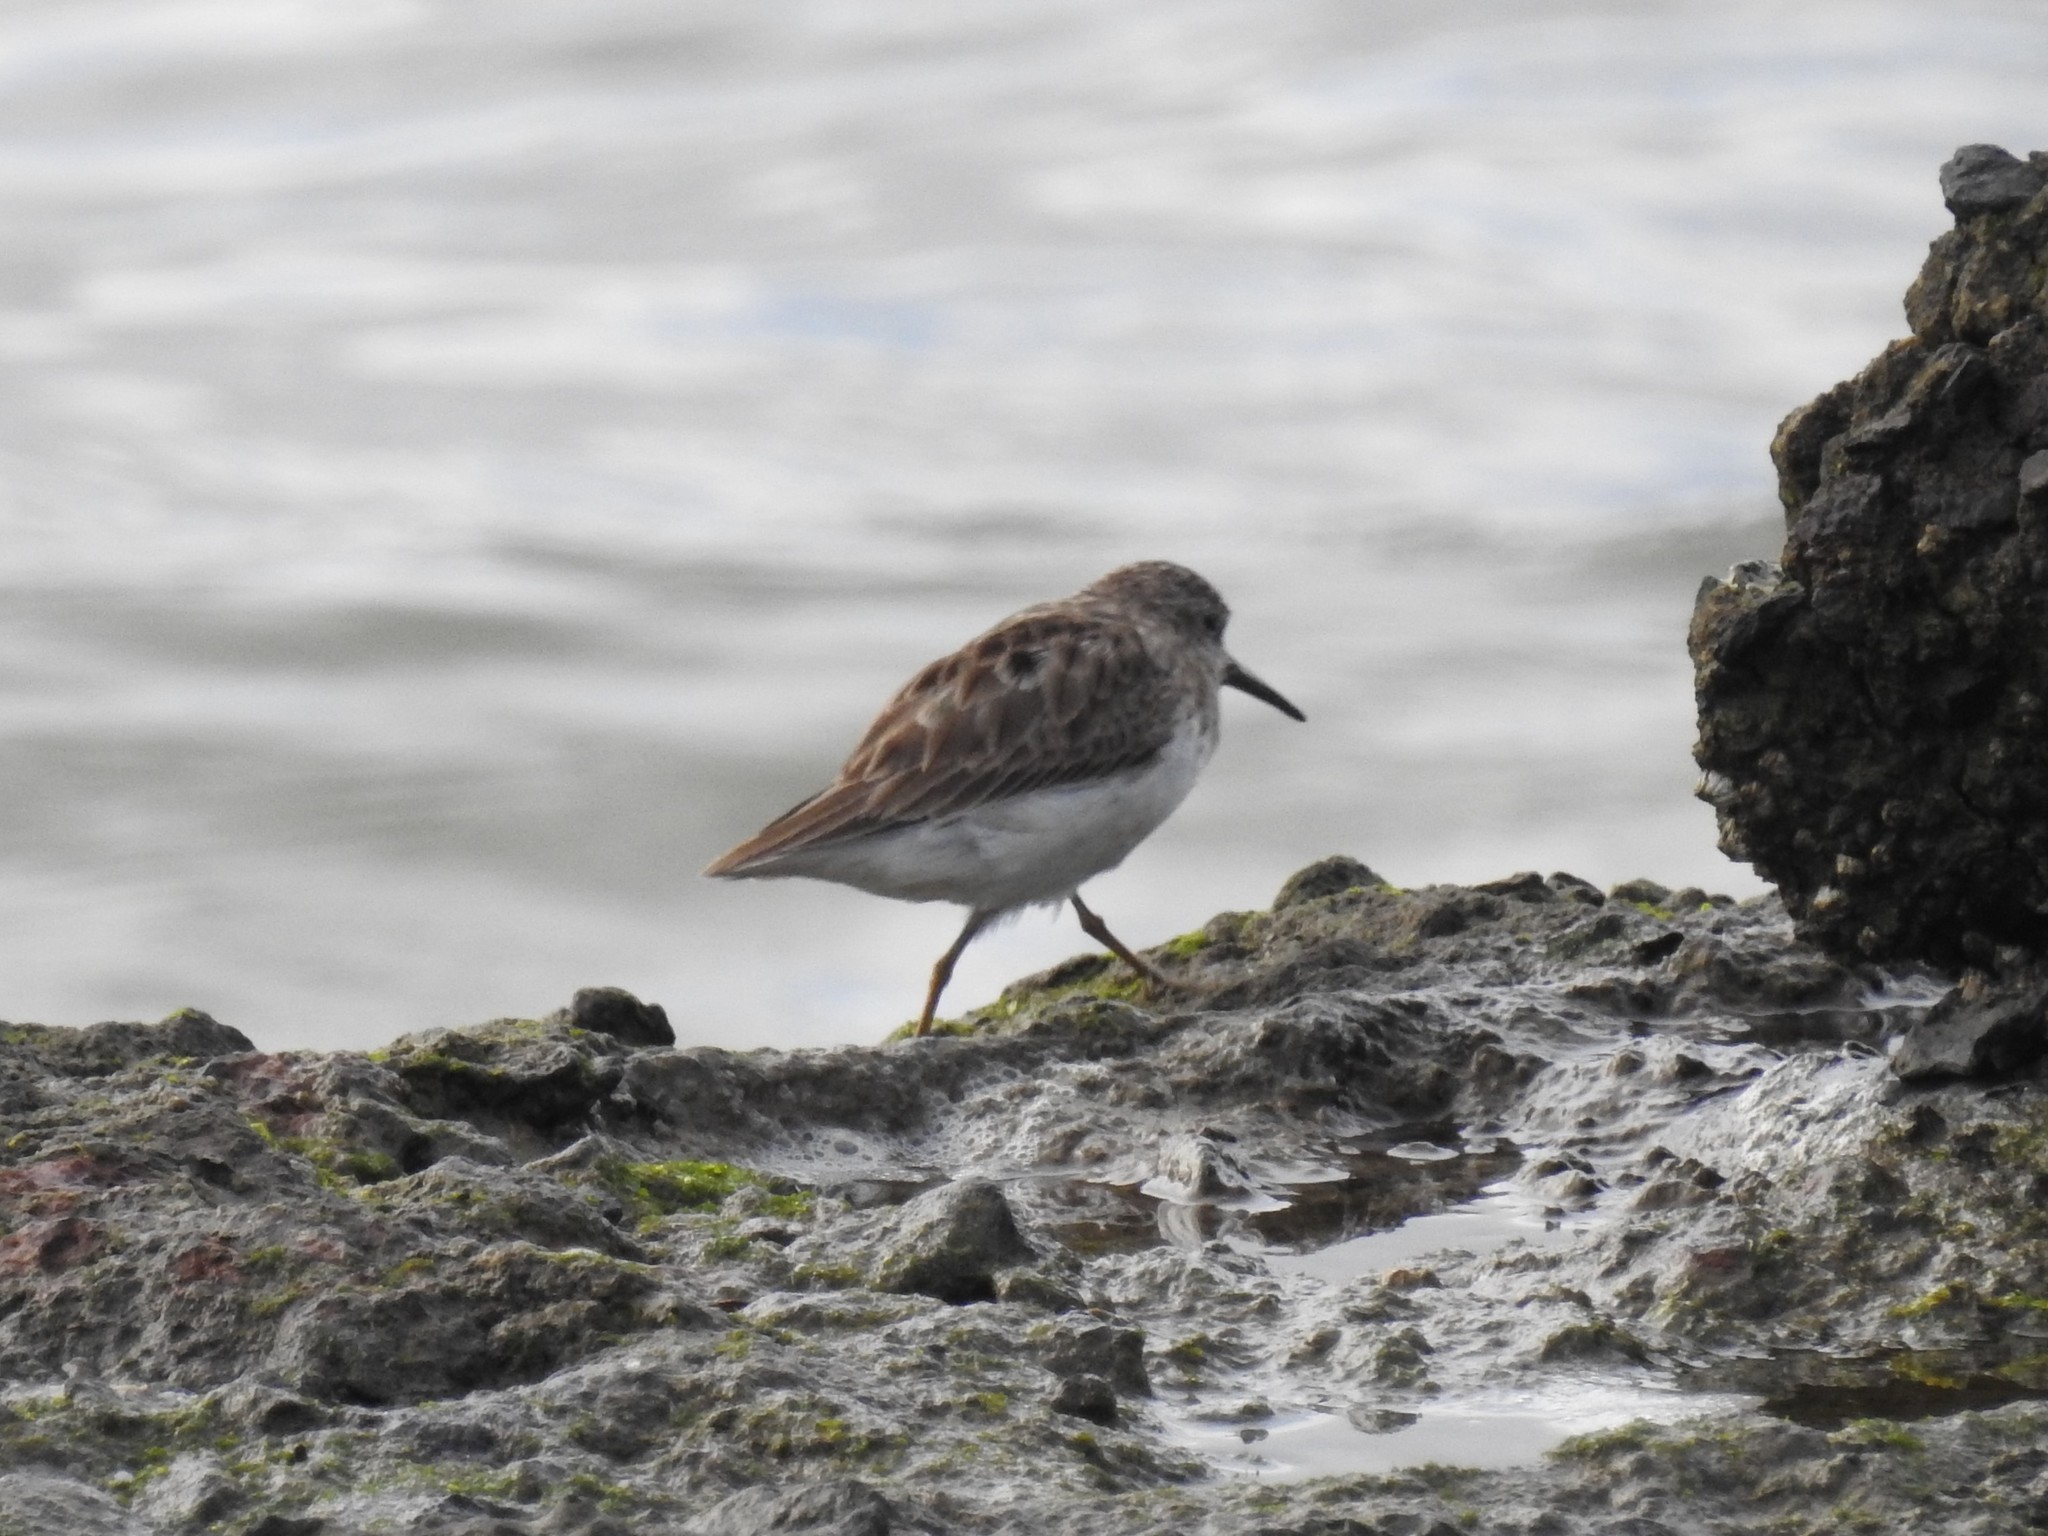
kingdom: Animalia
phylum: Chordata
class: Aves
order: Charadriiformes
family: Scolopacidae
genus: Calidris
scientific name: Calidris minutilla
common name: Least sandpiper
